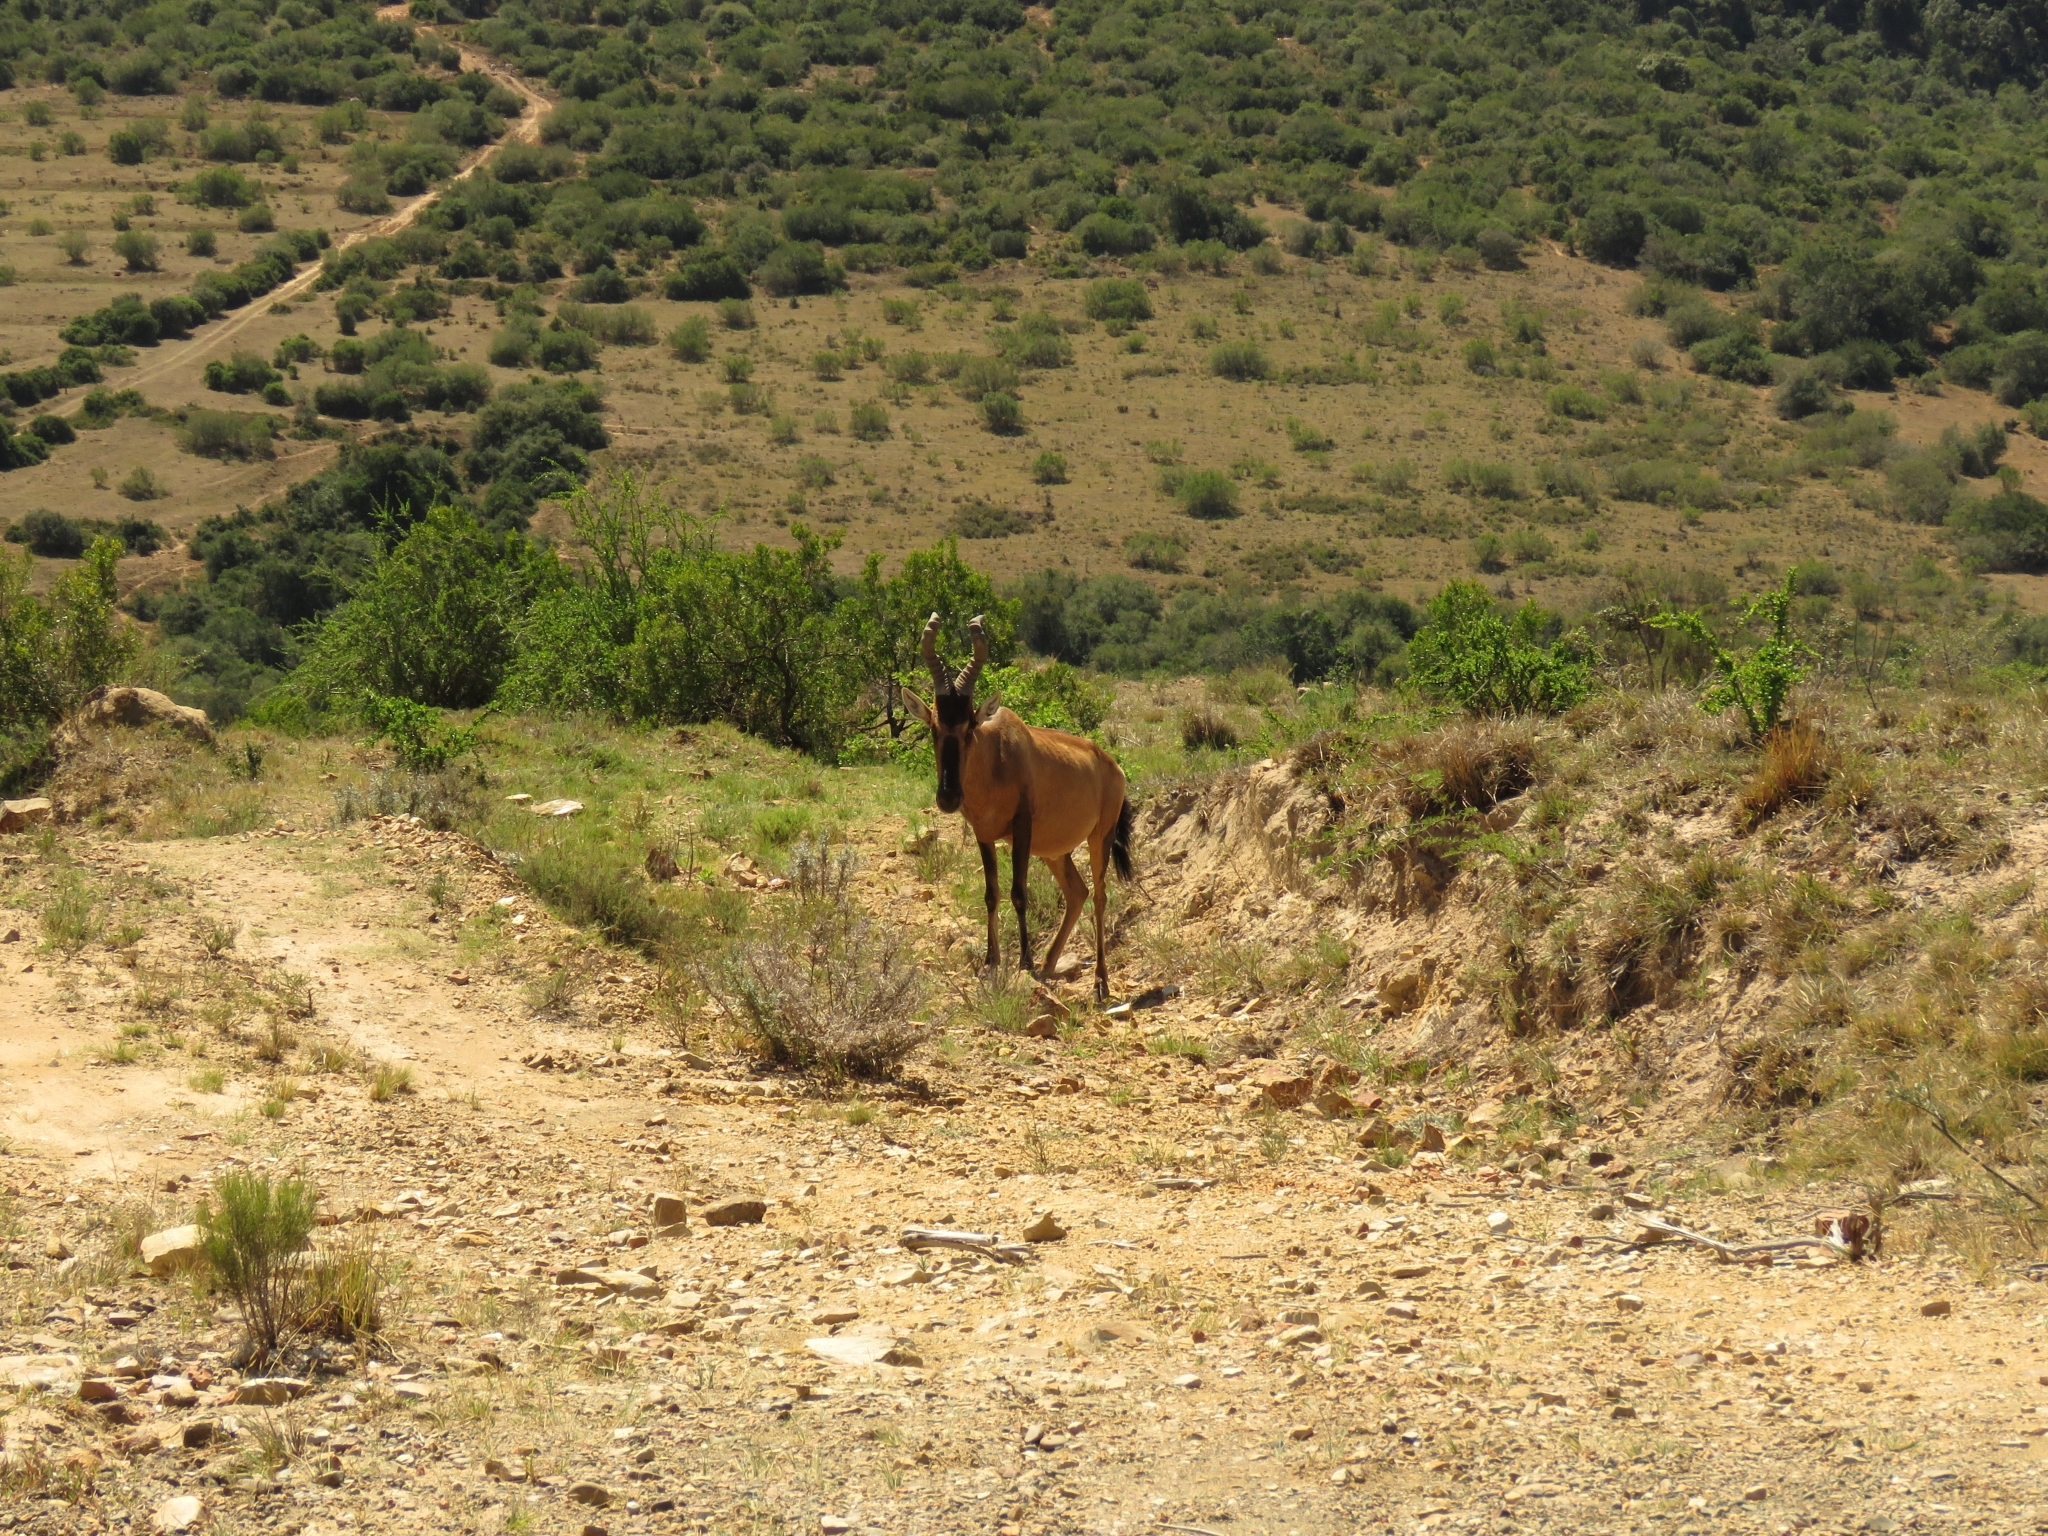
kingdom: Animalia
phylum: Chordata
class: Mammalia
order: Artiodactyla
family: Bovidae
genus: Alcelaphus
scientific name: Alcelaphus caama
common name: Red hartebeest
